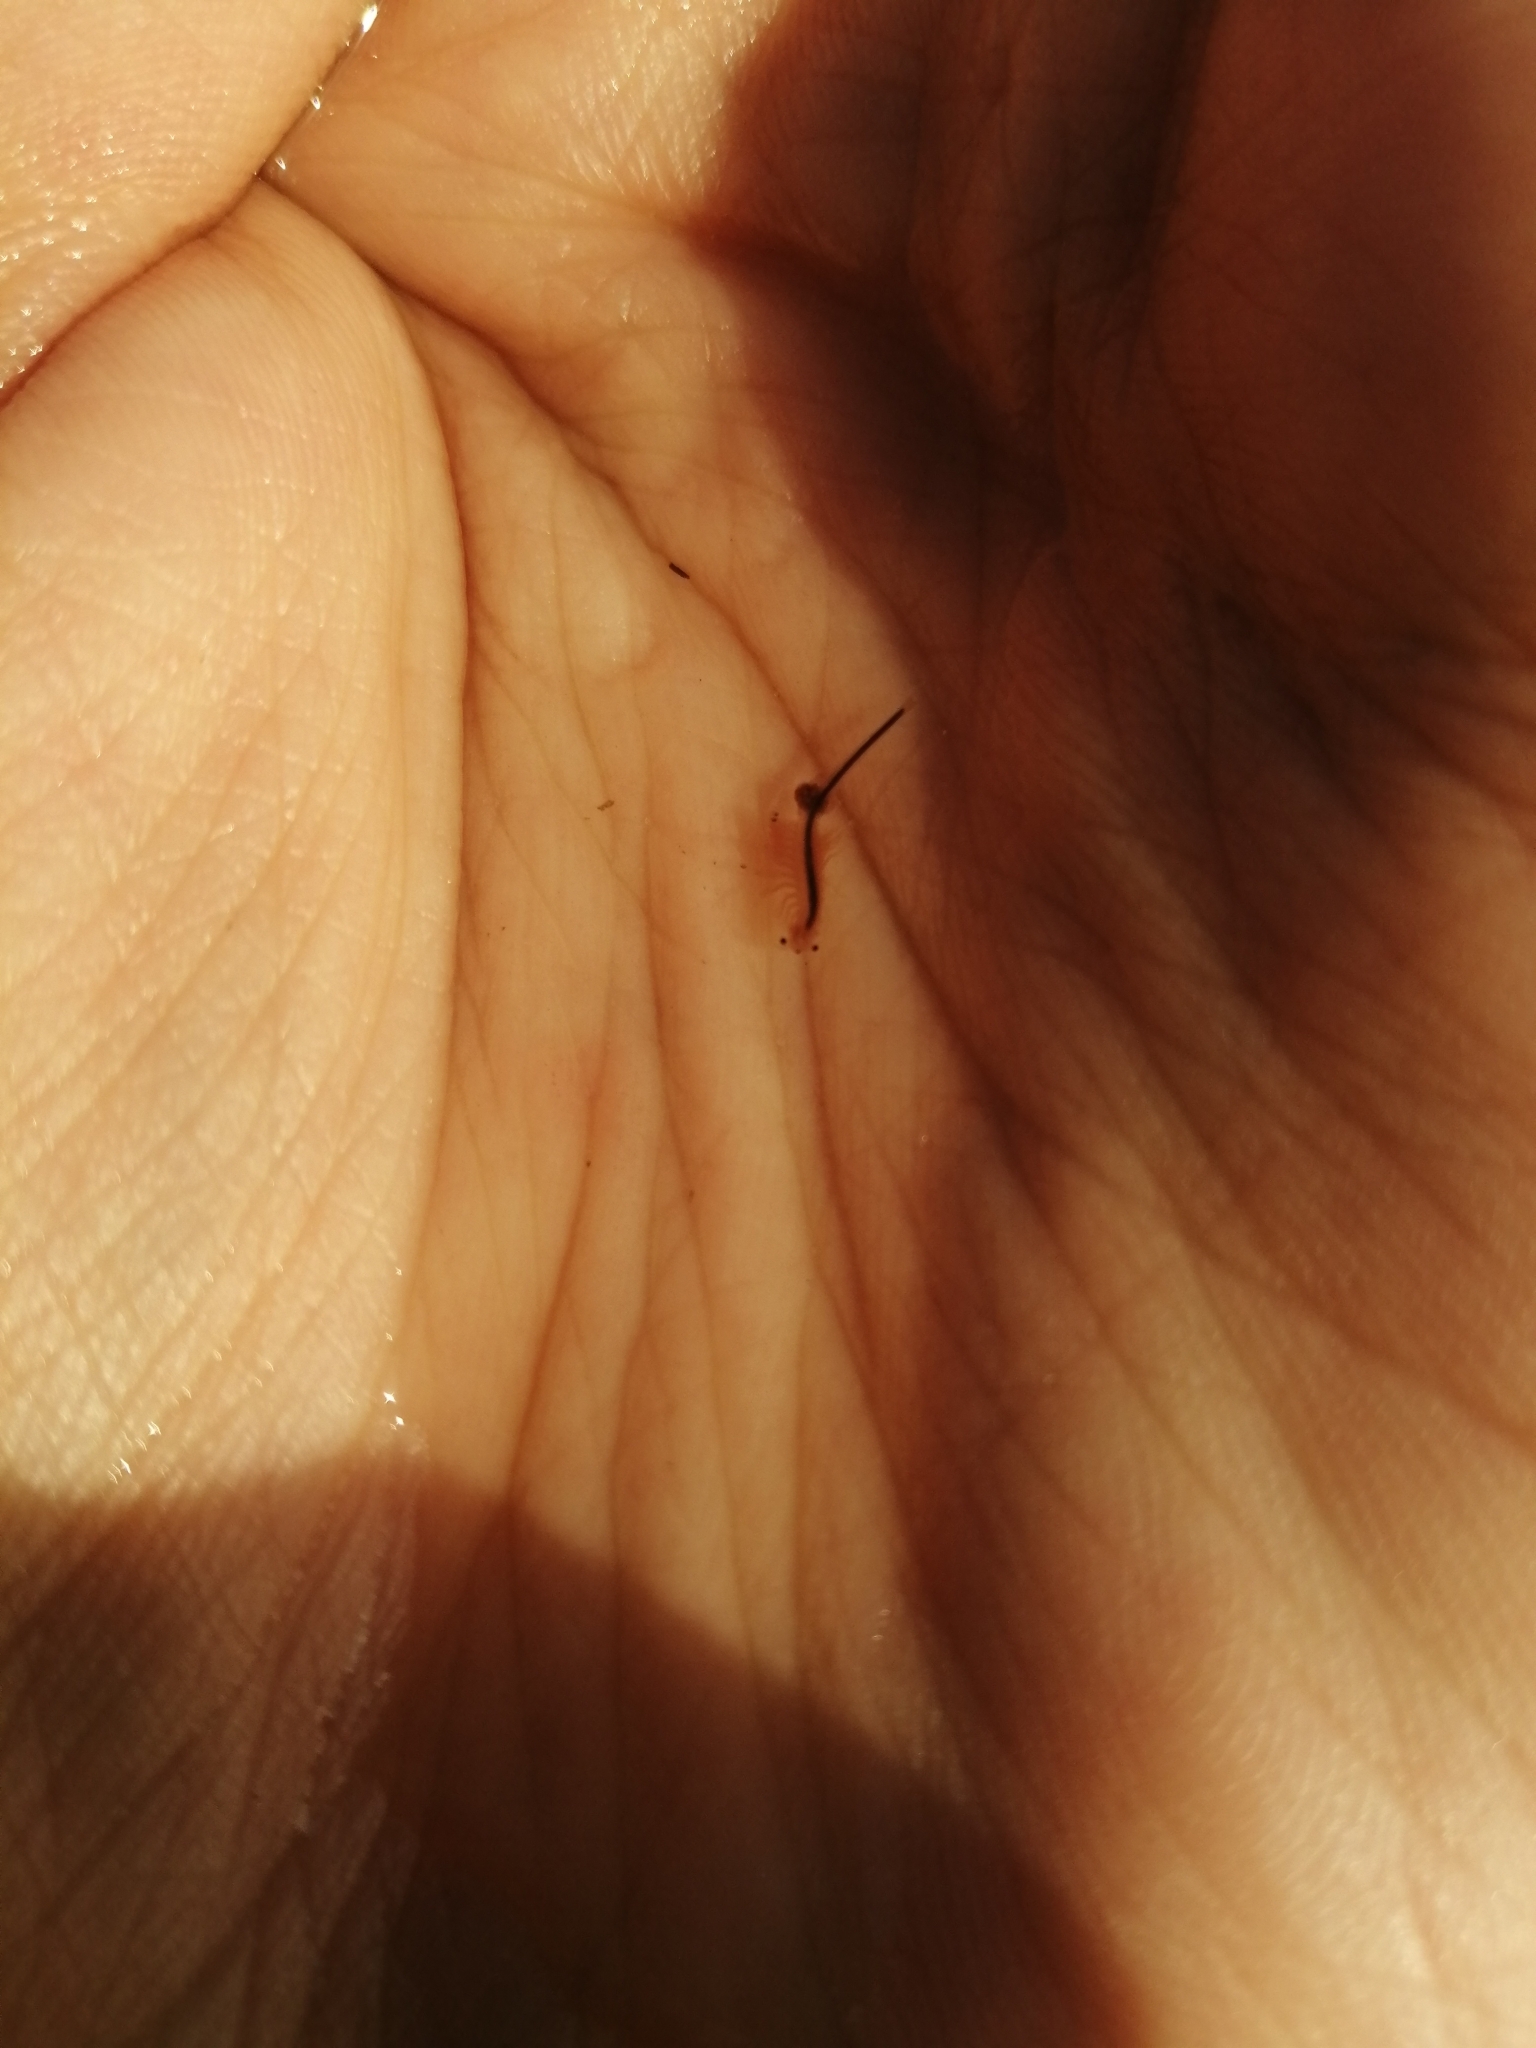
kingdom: Animalia
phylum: Arthropoda
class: Branchiopoda
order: Anostraca
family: Artemiidae
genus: Artemia
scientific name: Artemia salina
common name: Brine shrimp
